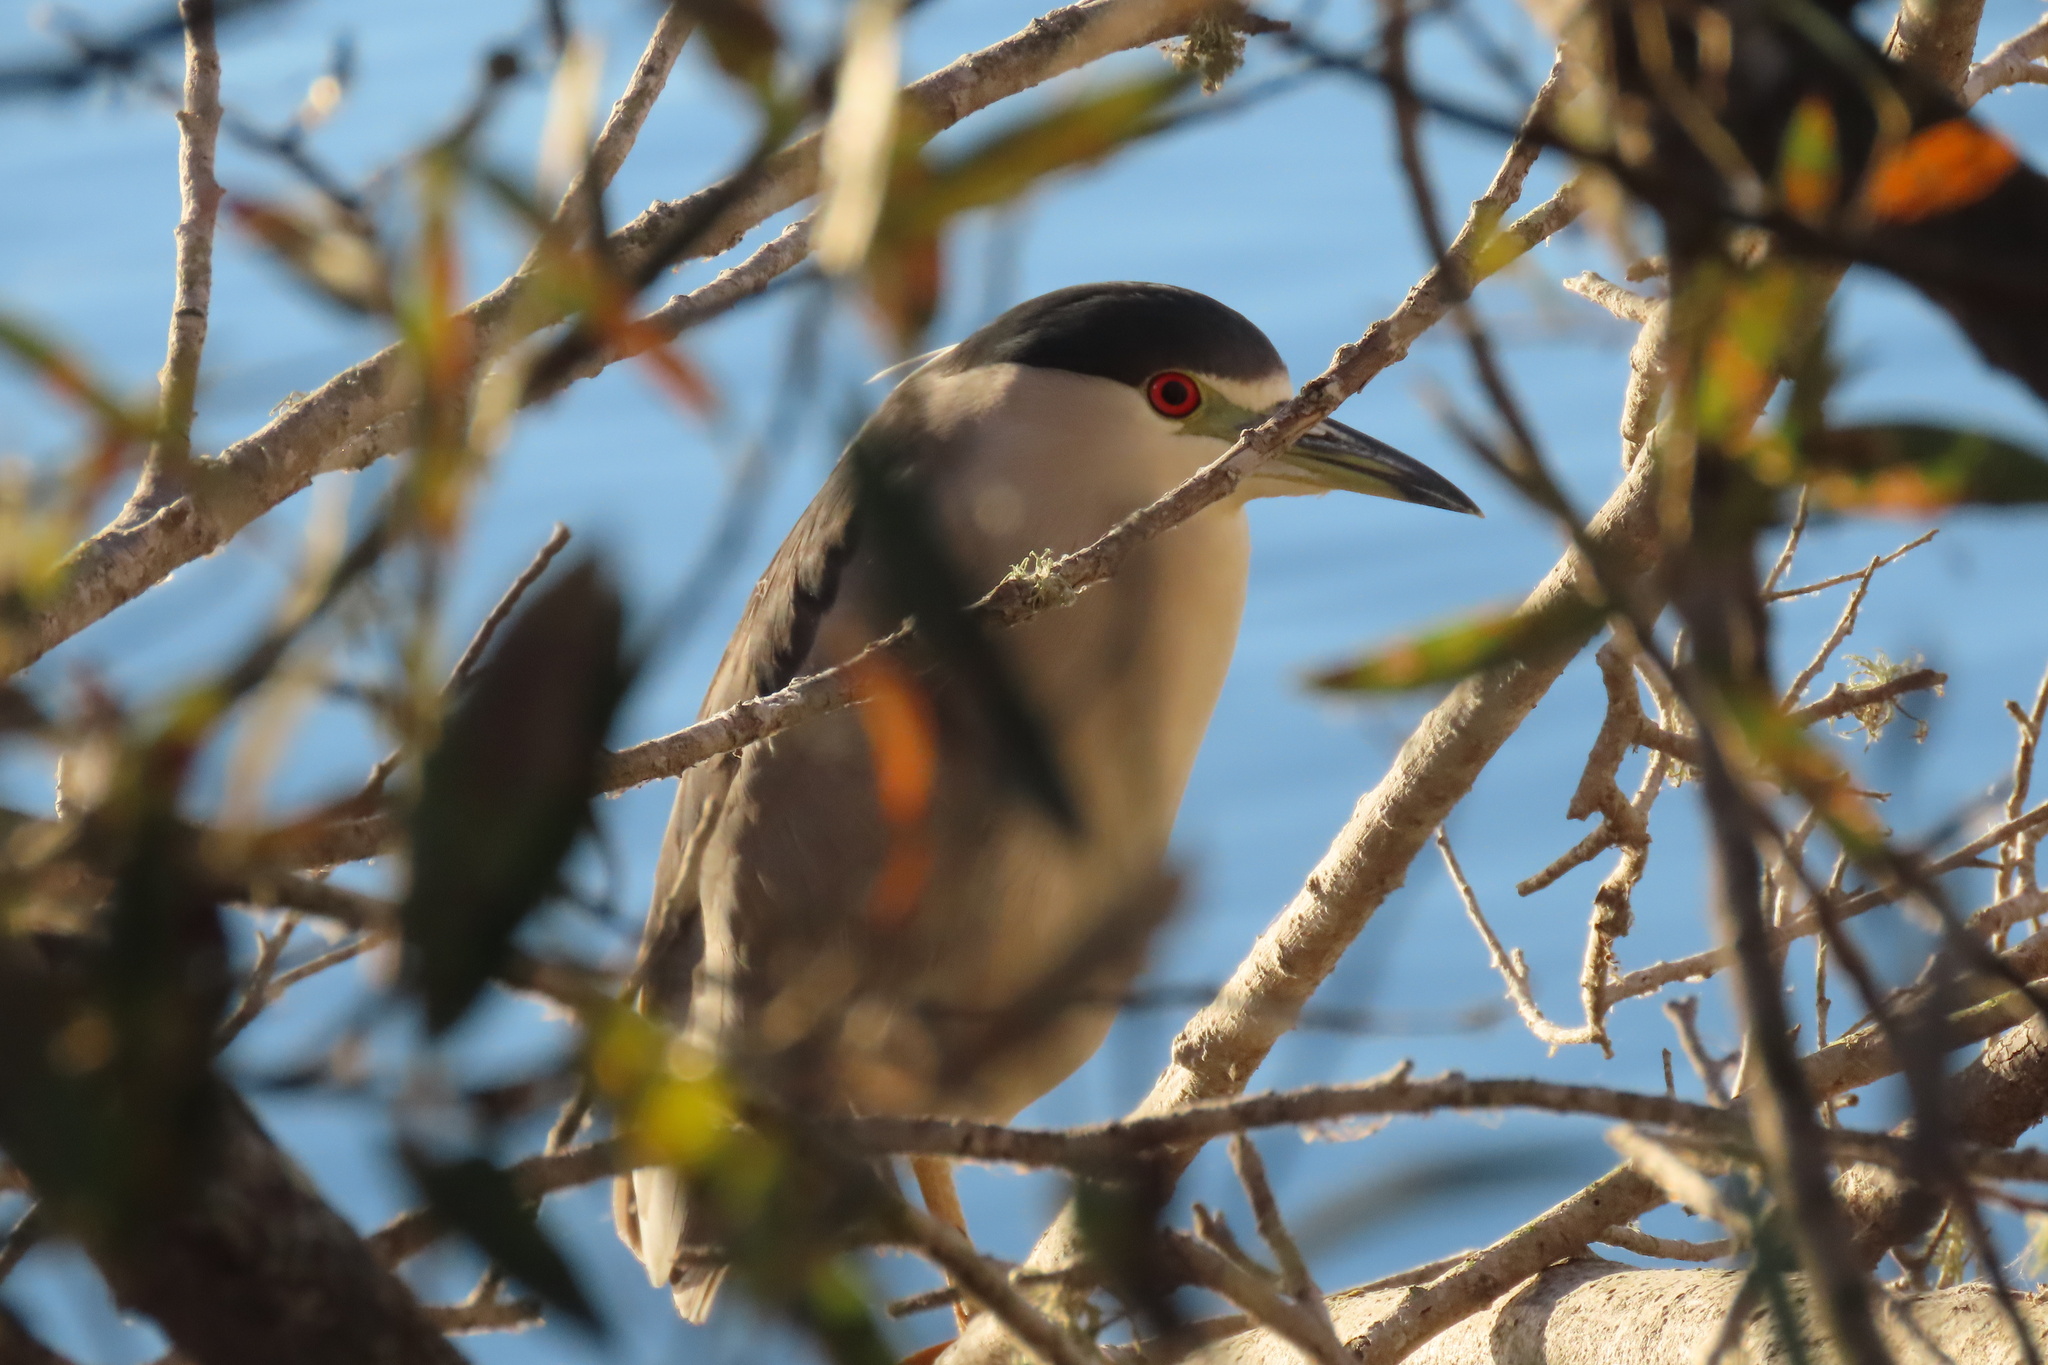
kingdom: Animalia
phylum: Chordata
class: Aves
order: Pelecaniformes
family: Ardeidae
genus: Nycticorax
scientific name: Nycticorax nycticorax
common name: Black-crowned night heron
